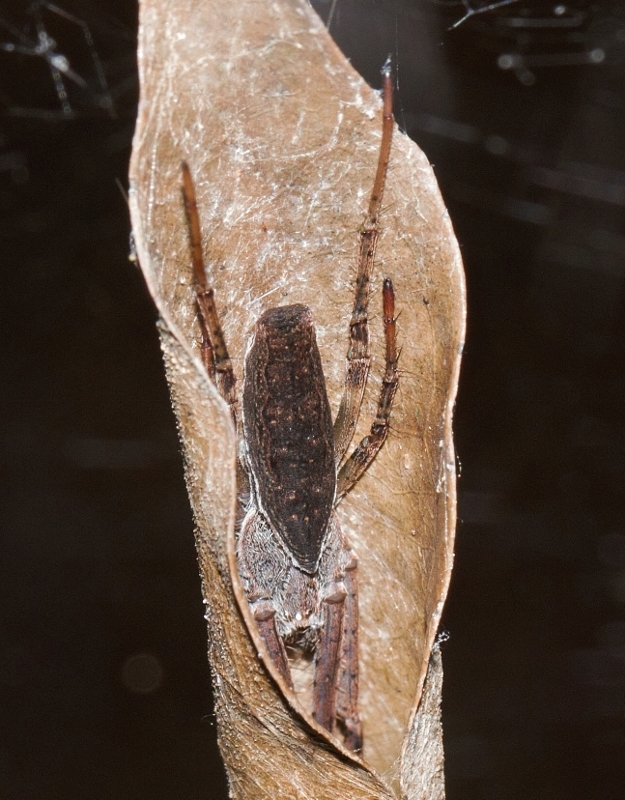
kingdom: Animalia
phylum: Arthropoda
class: Arachnida
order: Araneae
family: Araneidae
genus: Cyrtophora
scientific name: Cyrtophora petersi
